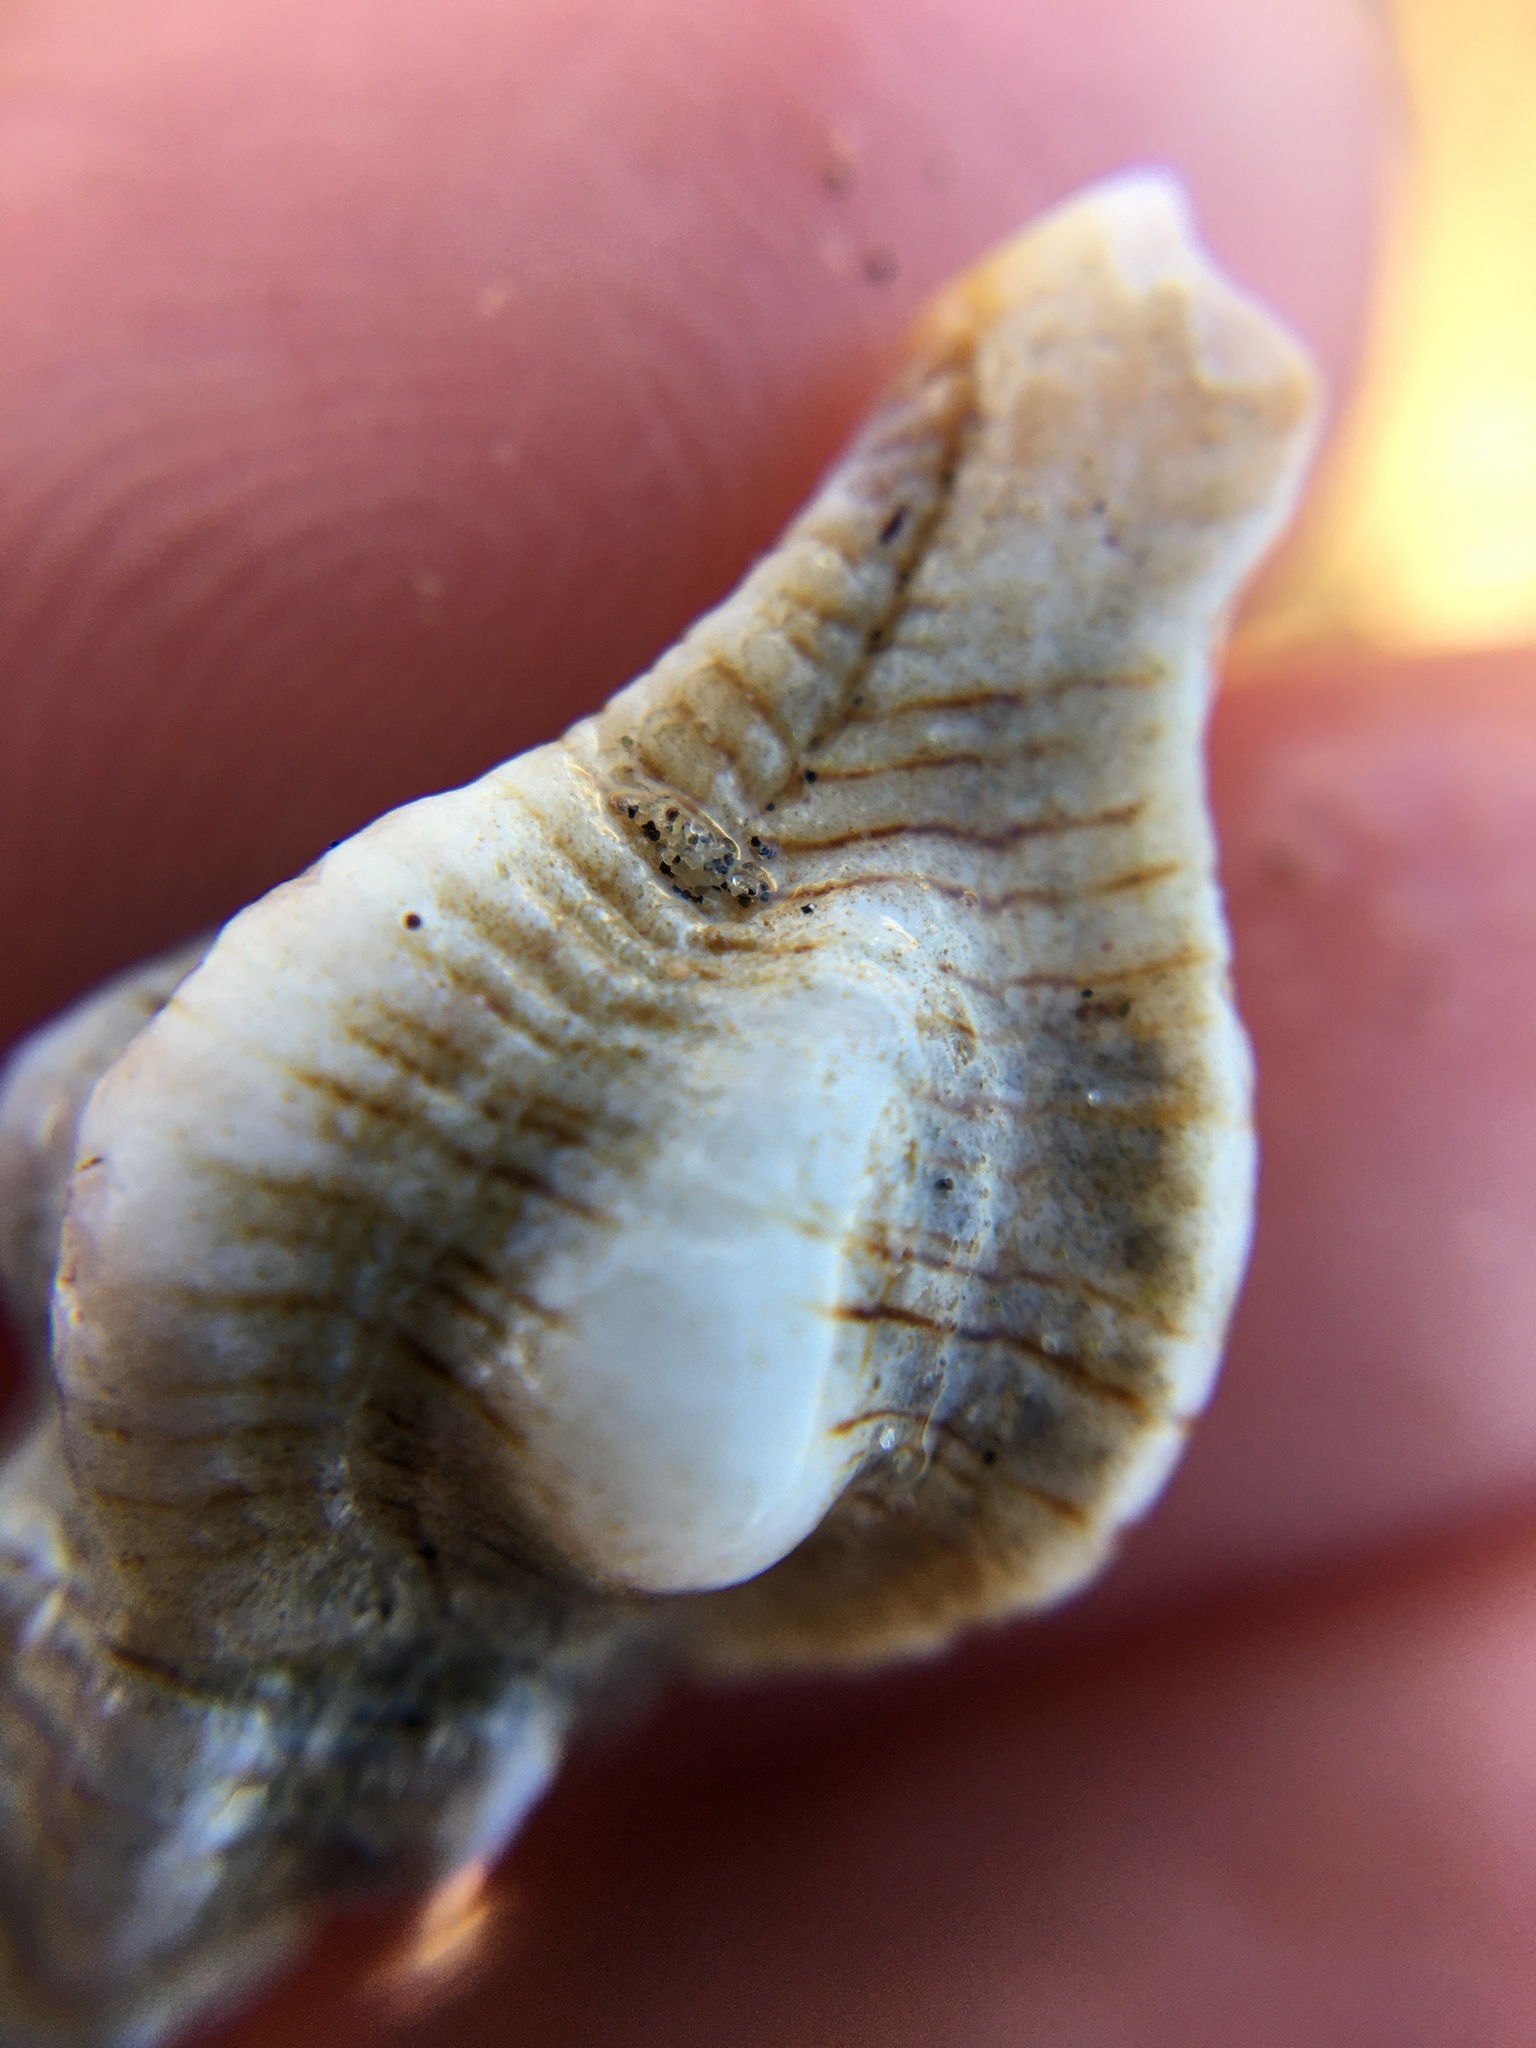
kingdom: Animalia
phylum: Mollusca
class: Gastropoda
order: Neogastropoda
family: Muricidae
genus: Pteropurpura
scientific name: Pteropurpura festiva
